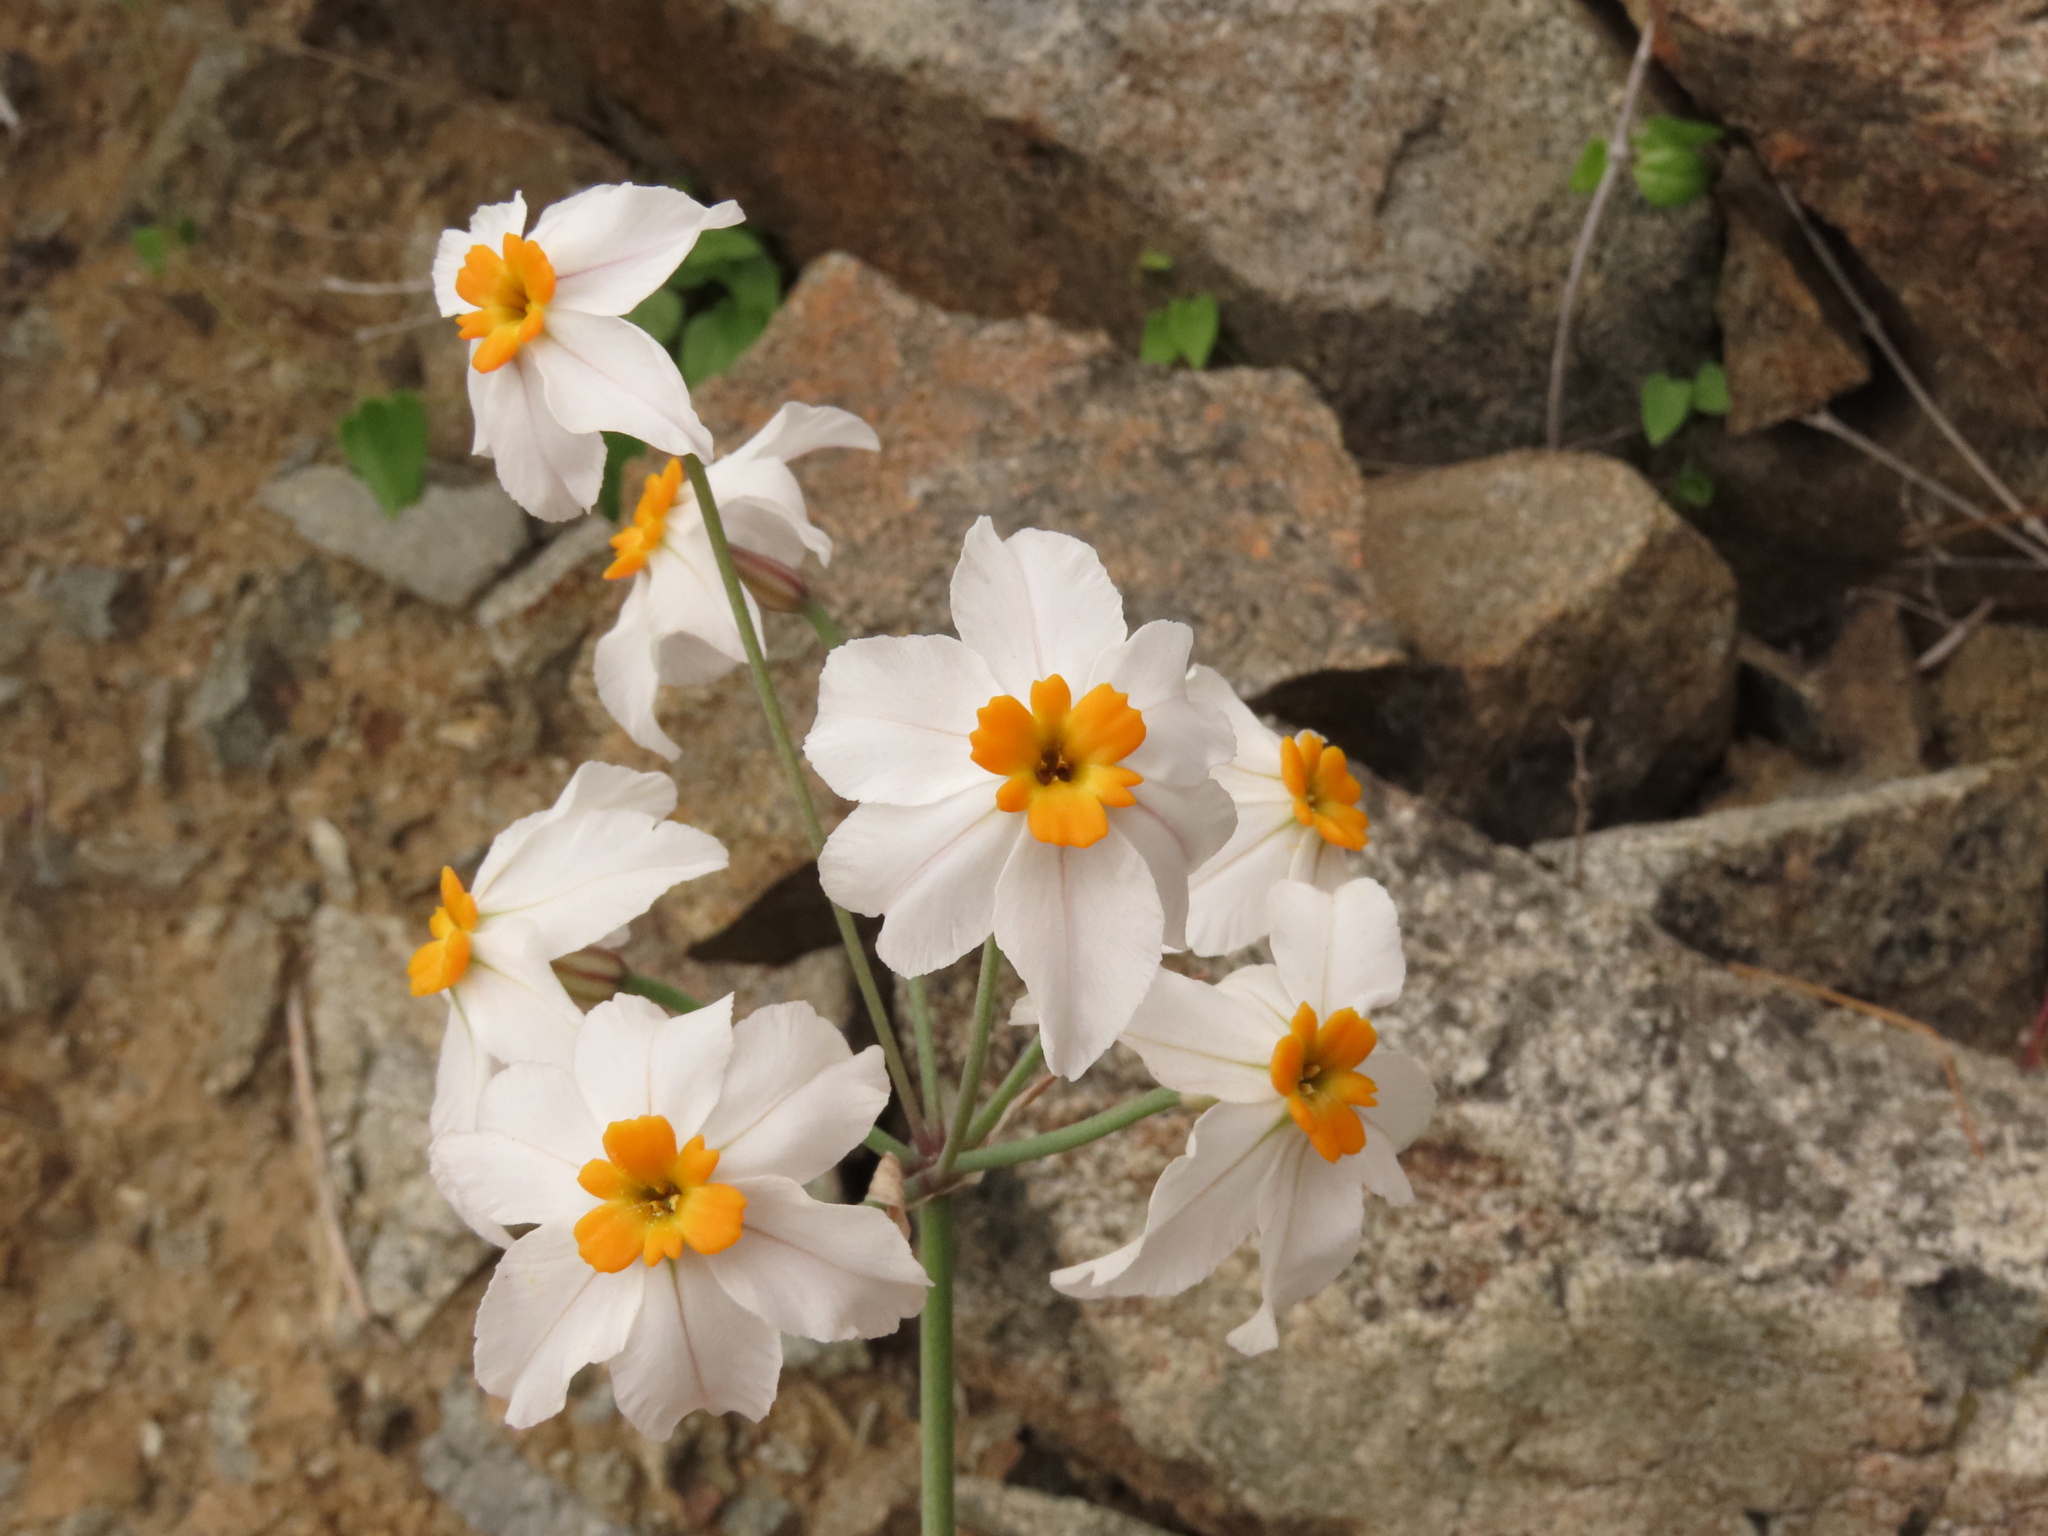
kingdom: Plantae
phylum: Tracheophyta
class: Liliopsida
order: Asparagales
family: Amaryllidaceae
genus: Leucocoryne
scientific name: Leucocoryne coronata
